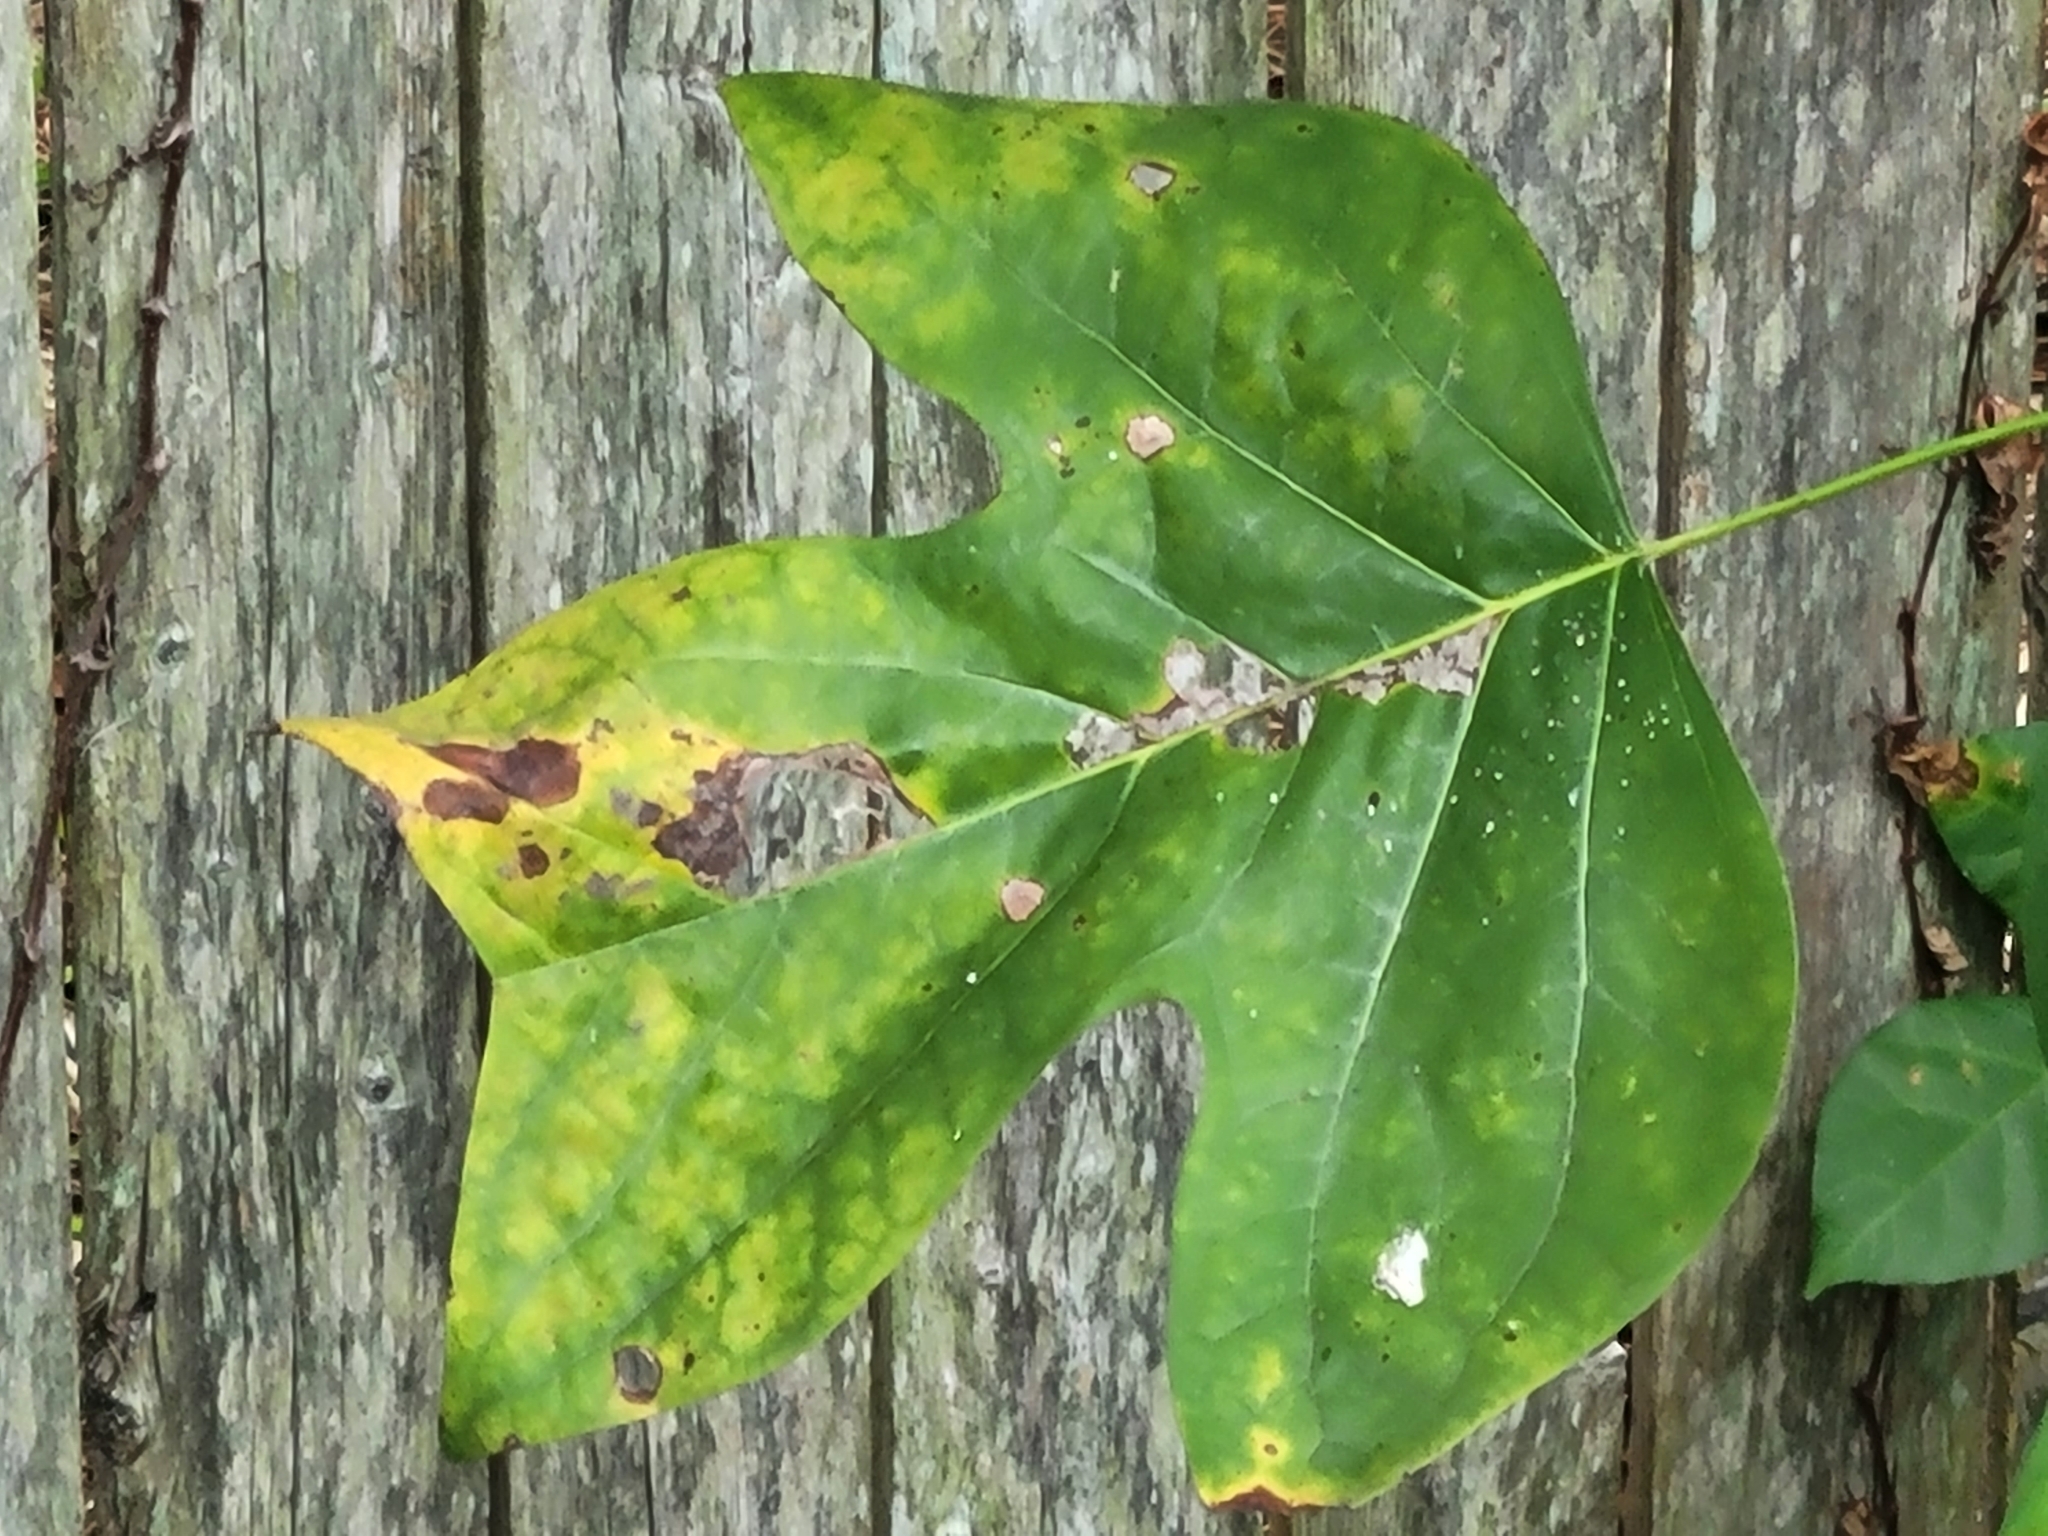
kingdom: Plantae
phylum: Tracheophyta
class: Magnoliopsida
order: Magnoliales
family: Magnoliaceae
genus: Liriodendron
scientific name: Liriodendron tulipifera
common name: Tulip tree
